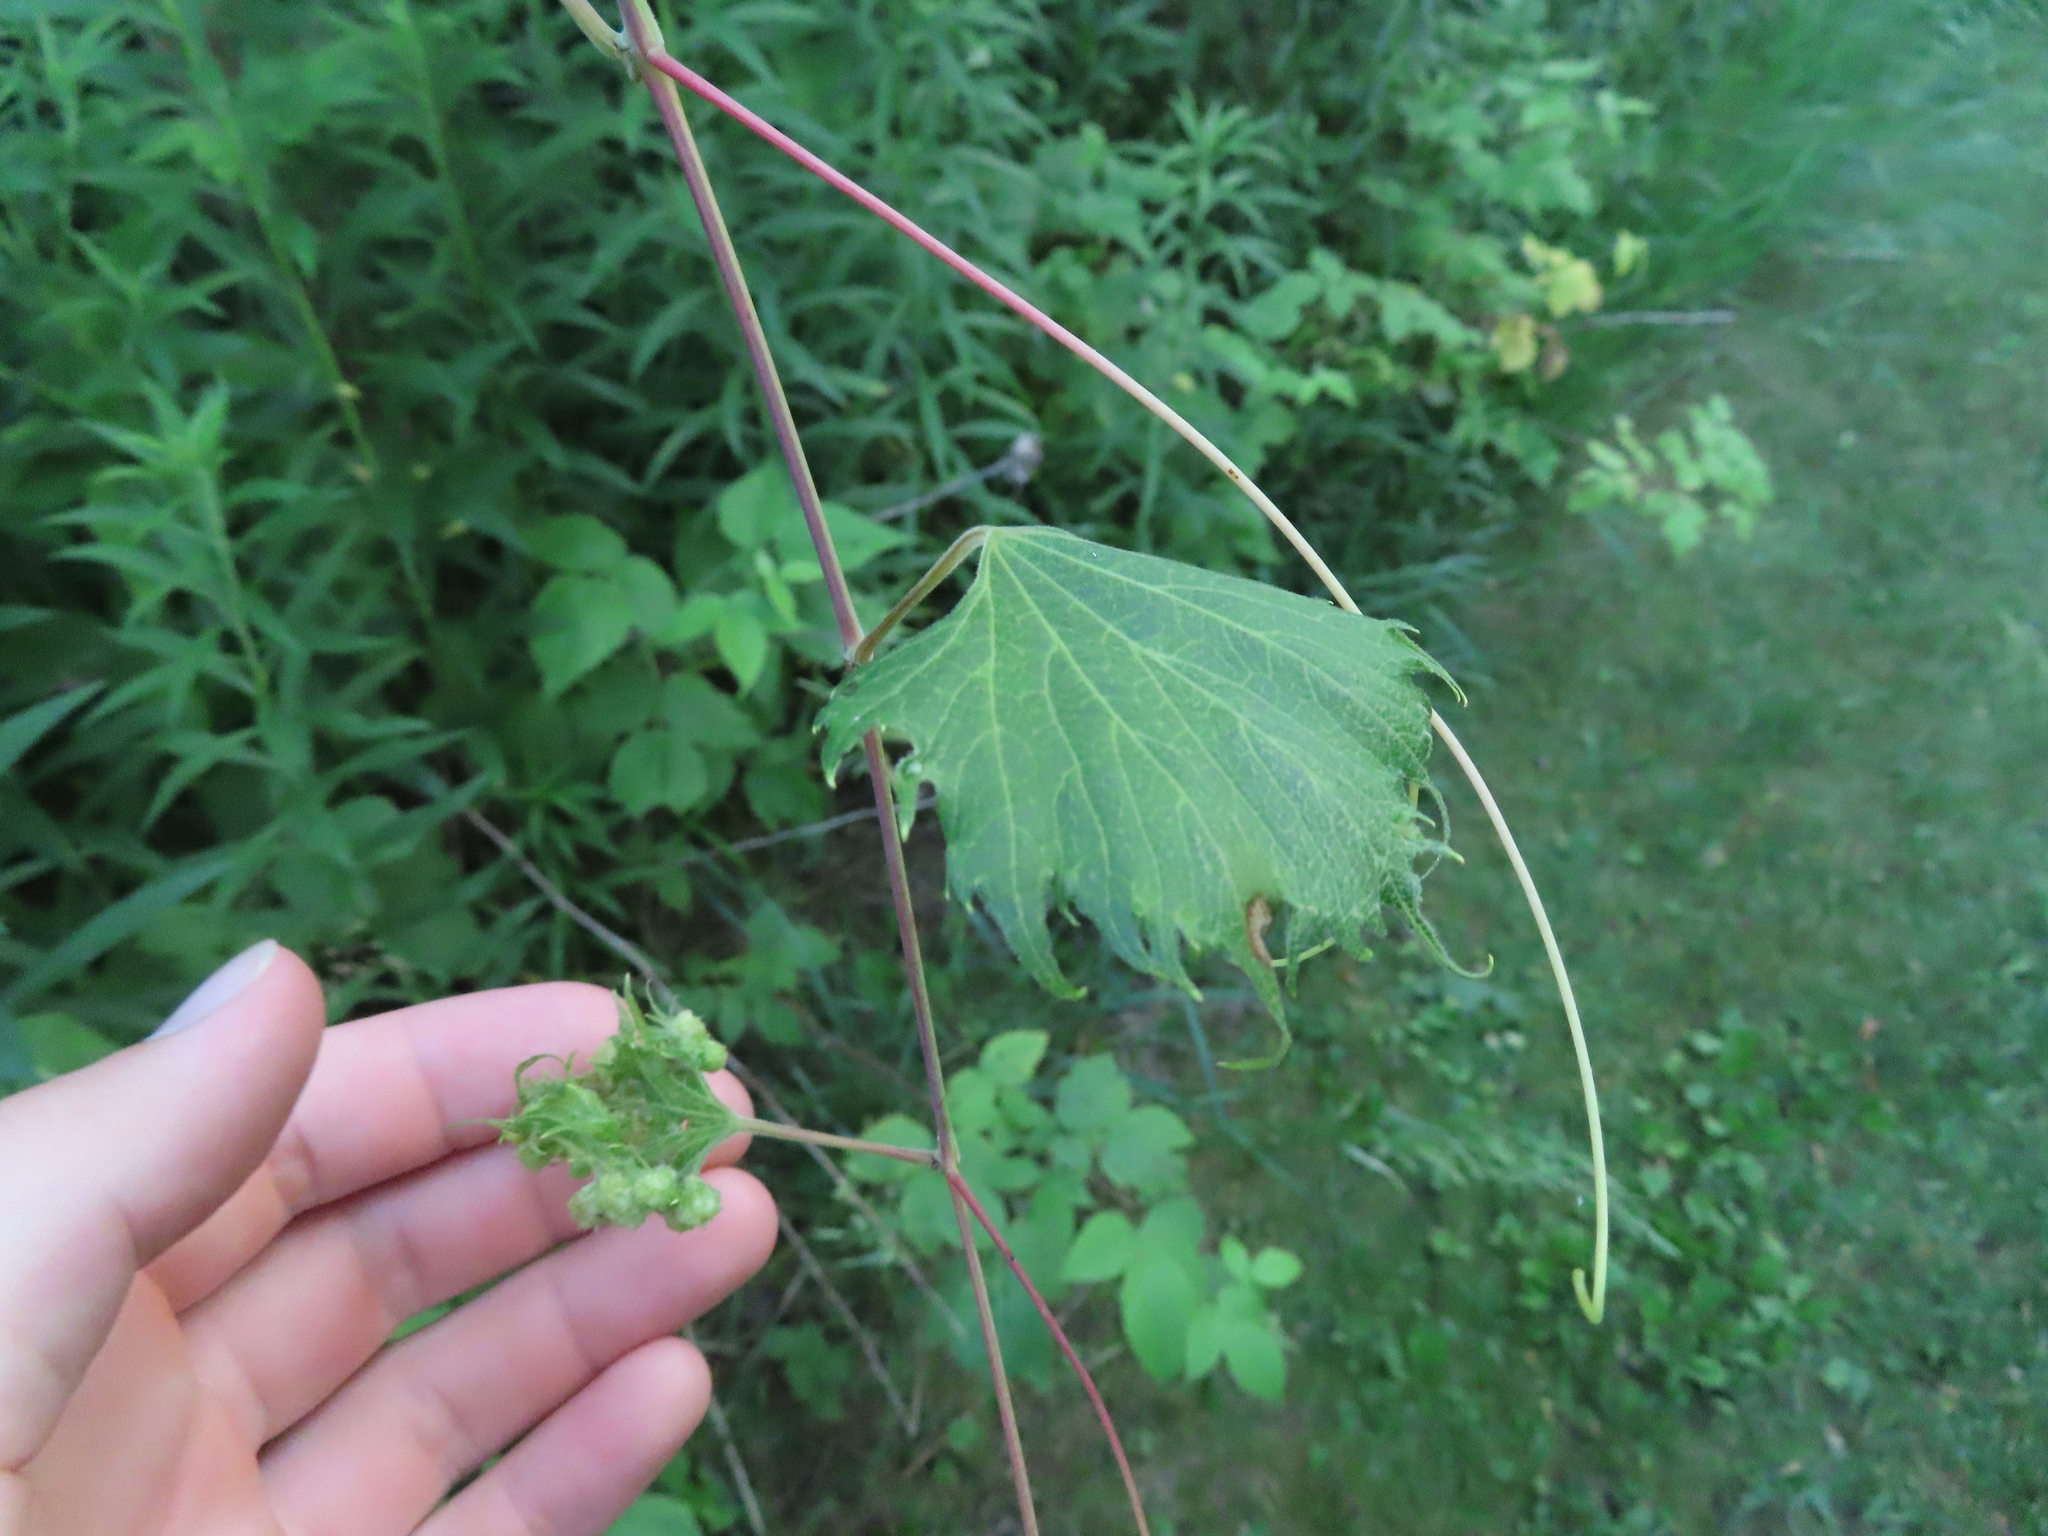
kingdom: Animalia
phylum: Arthropoda
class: Insecta
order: Hemiptera
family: Phylloxeridae
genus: Daktulosphaira
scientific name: Daktulosphaira vitifoliae
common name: Grape phylloxera
